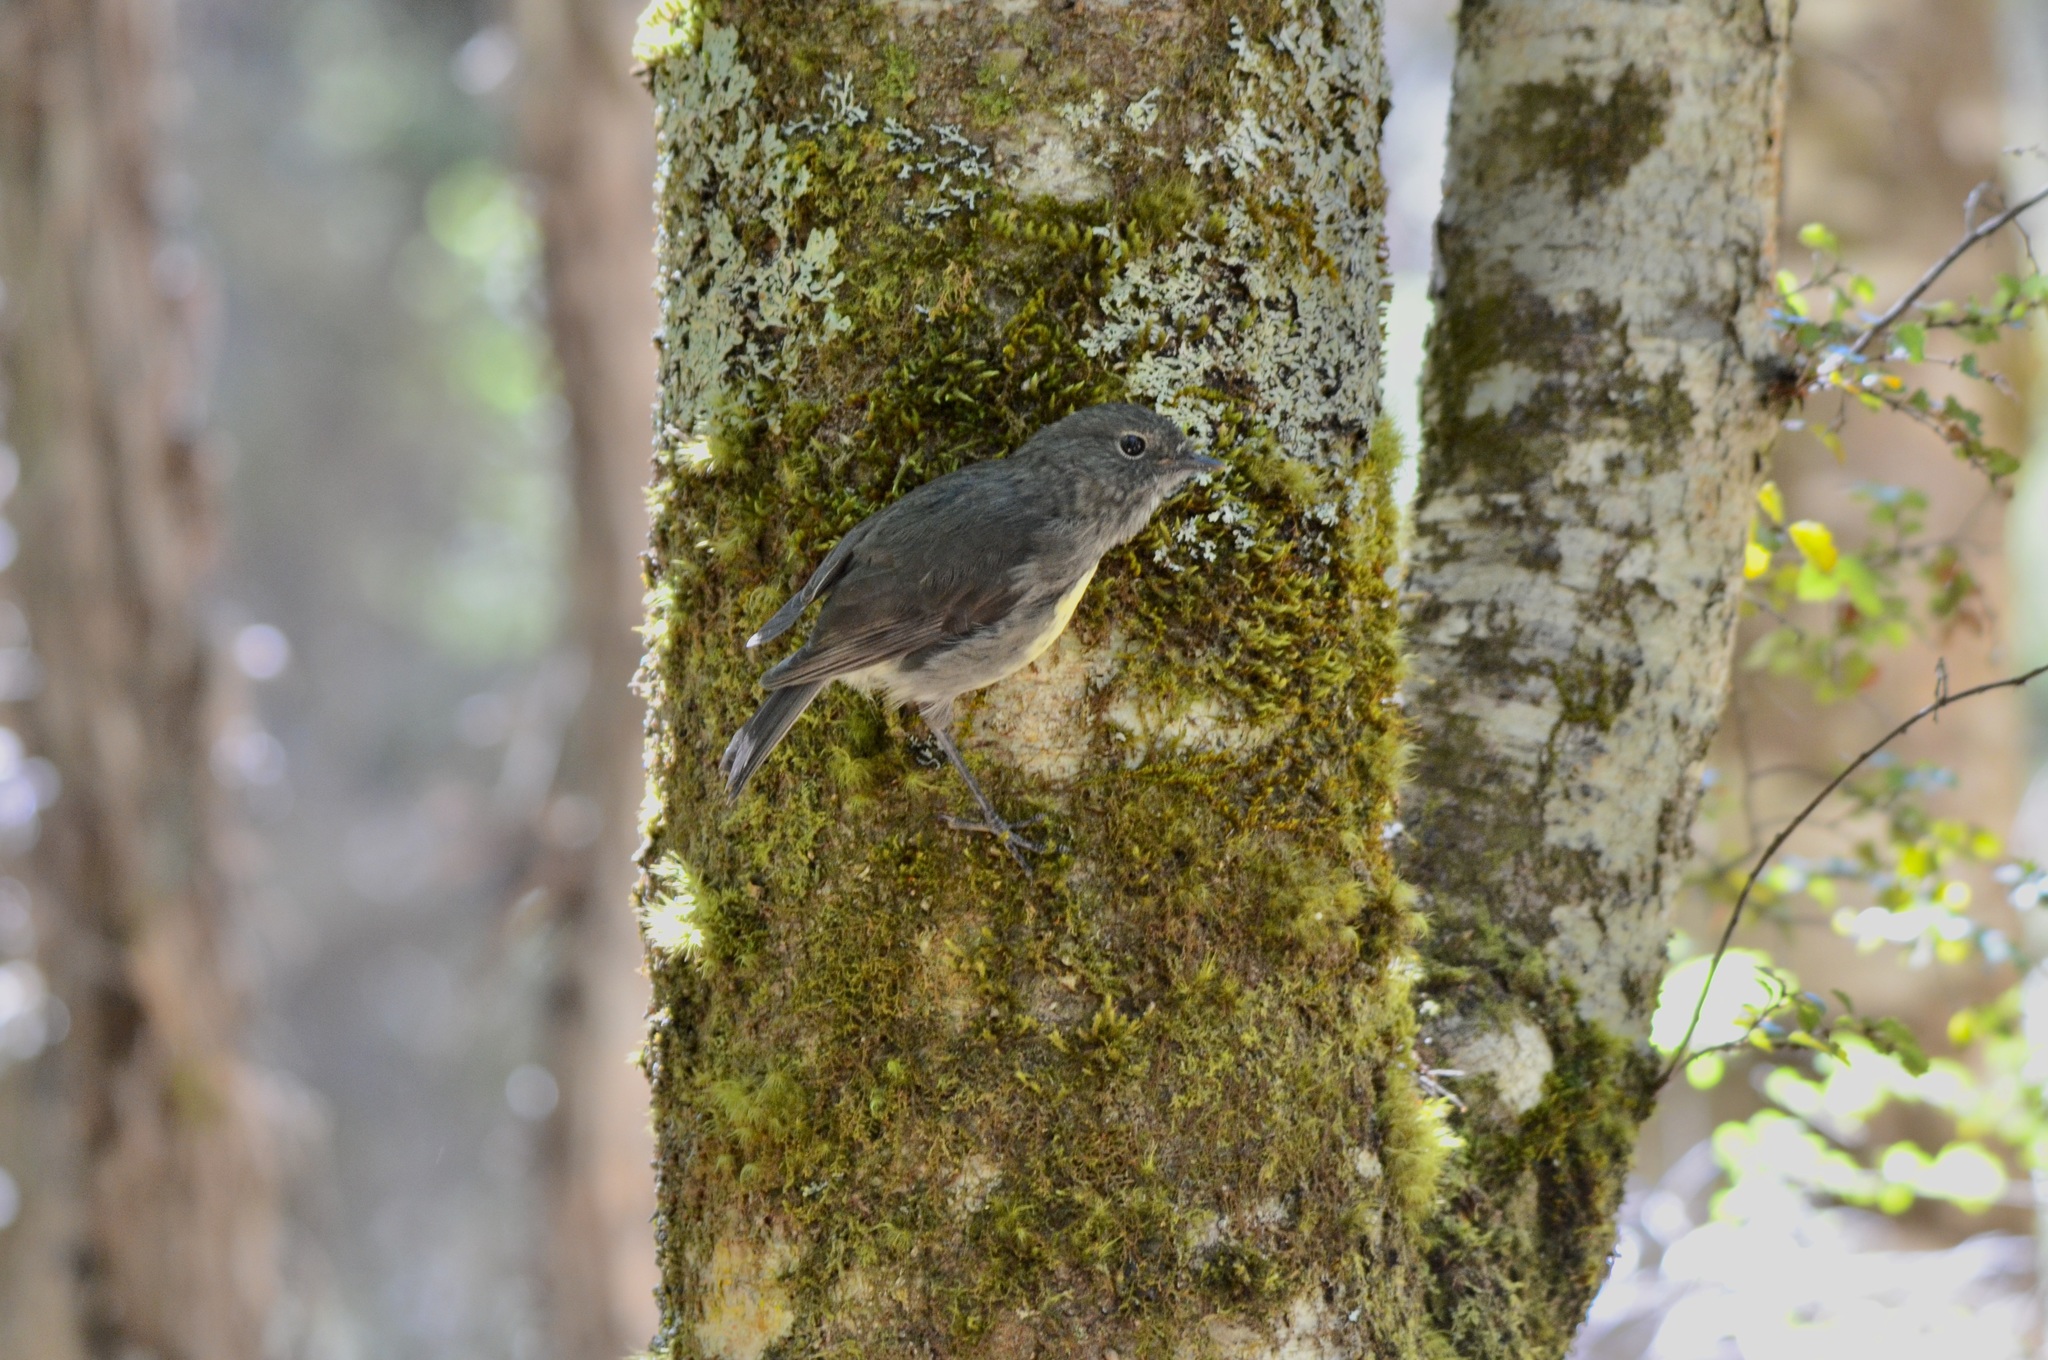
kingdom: Animalia
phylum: Chordata
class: Aves
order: Passeriformes
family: Petroicidae
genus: Petroica
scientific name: Petroica australis
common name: New zealand robin
